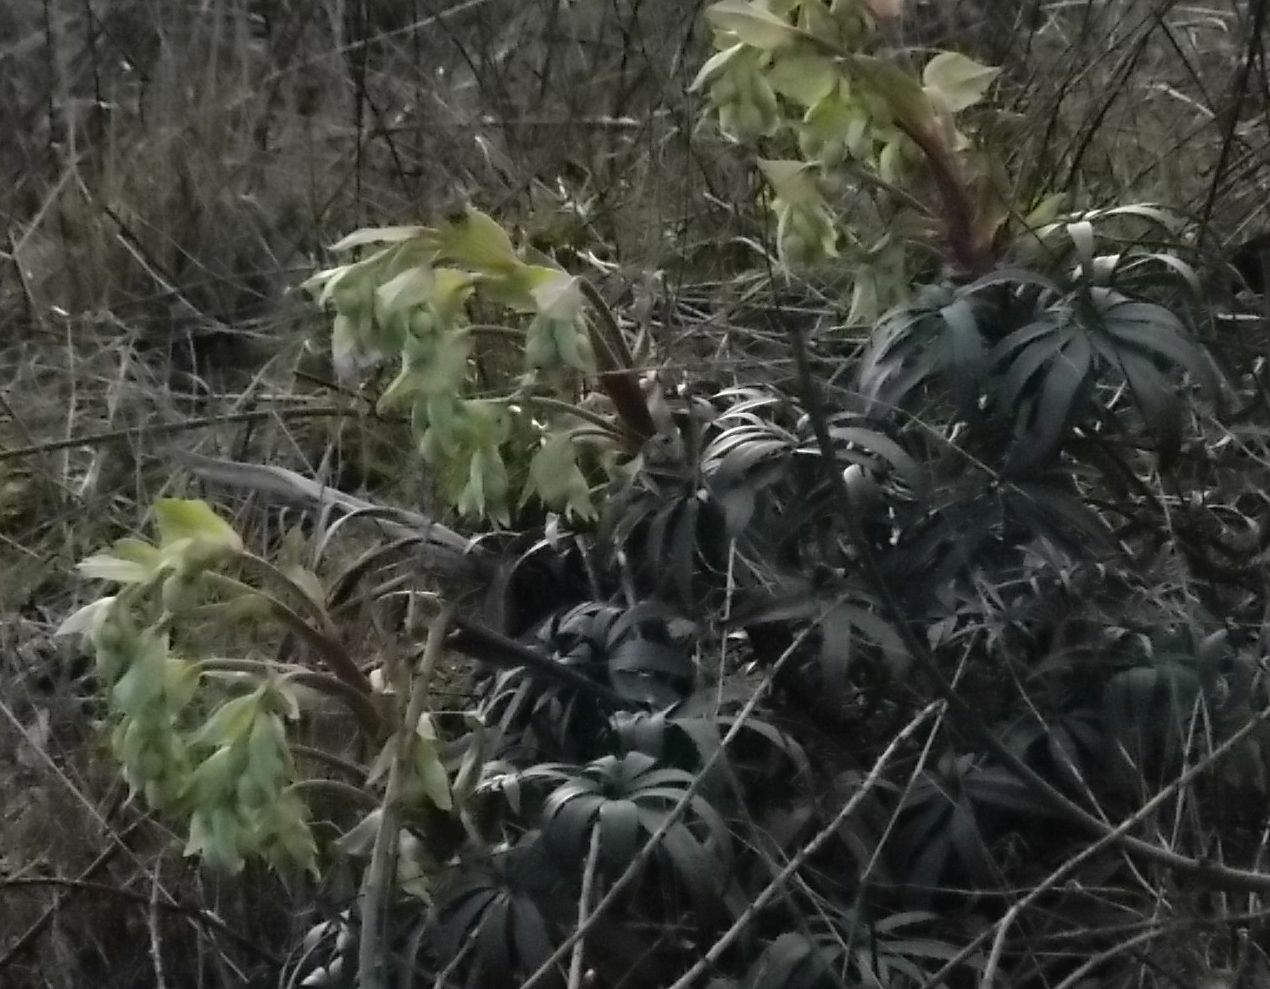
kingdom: Plantae
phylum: Tracheophyta
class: Magnoliopsida
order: Ranunculales
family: Ranunculaceae
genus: Helleborus
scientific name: Helleborus foetidus
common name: Stinking hellebore
